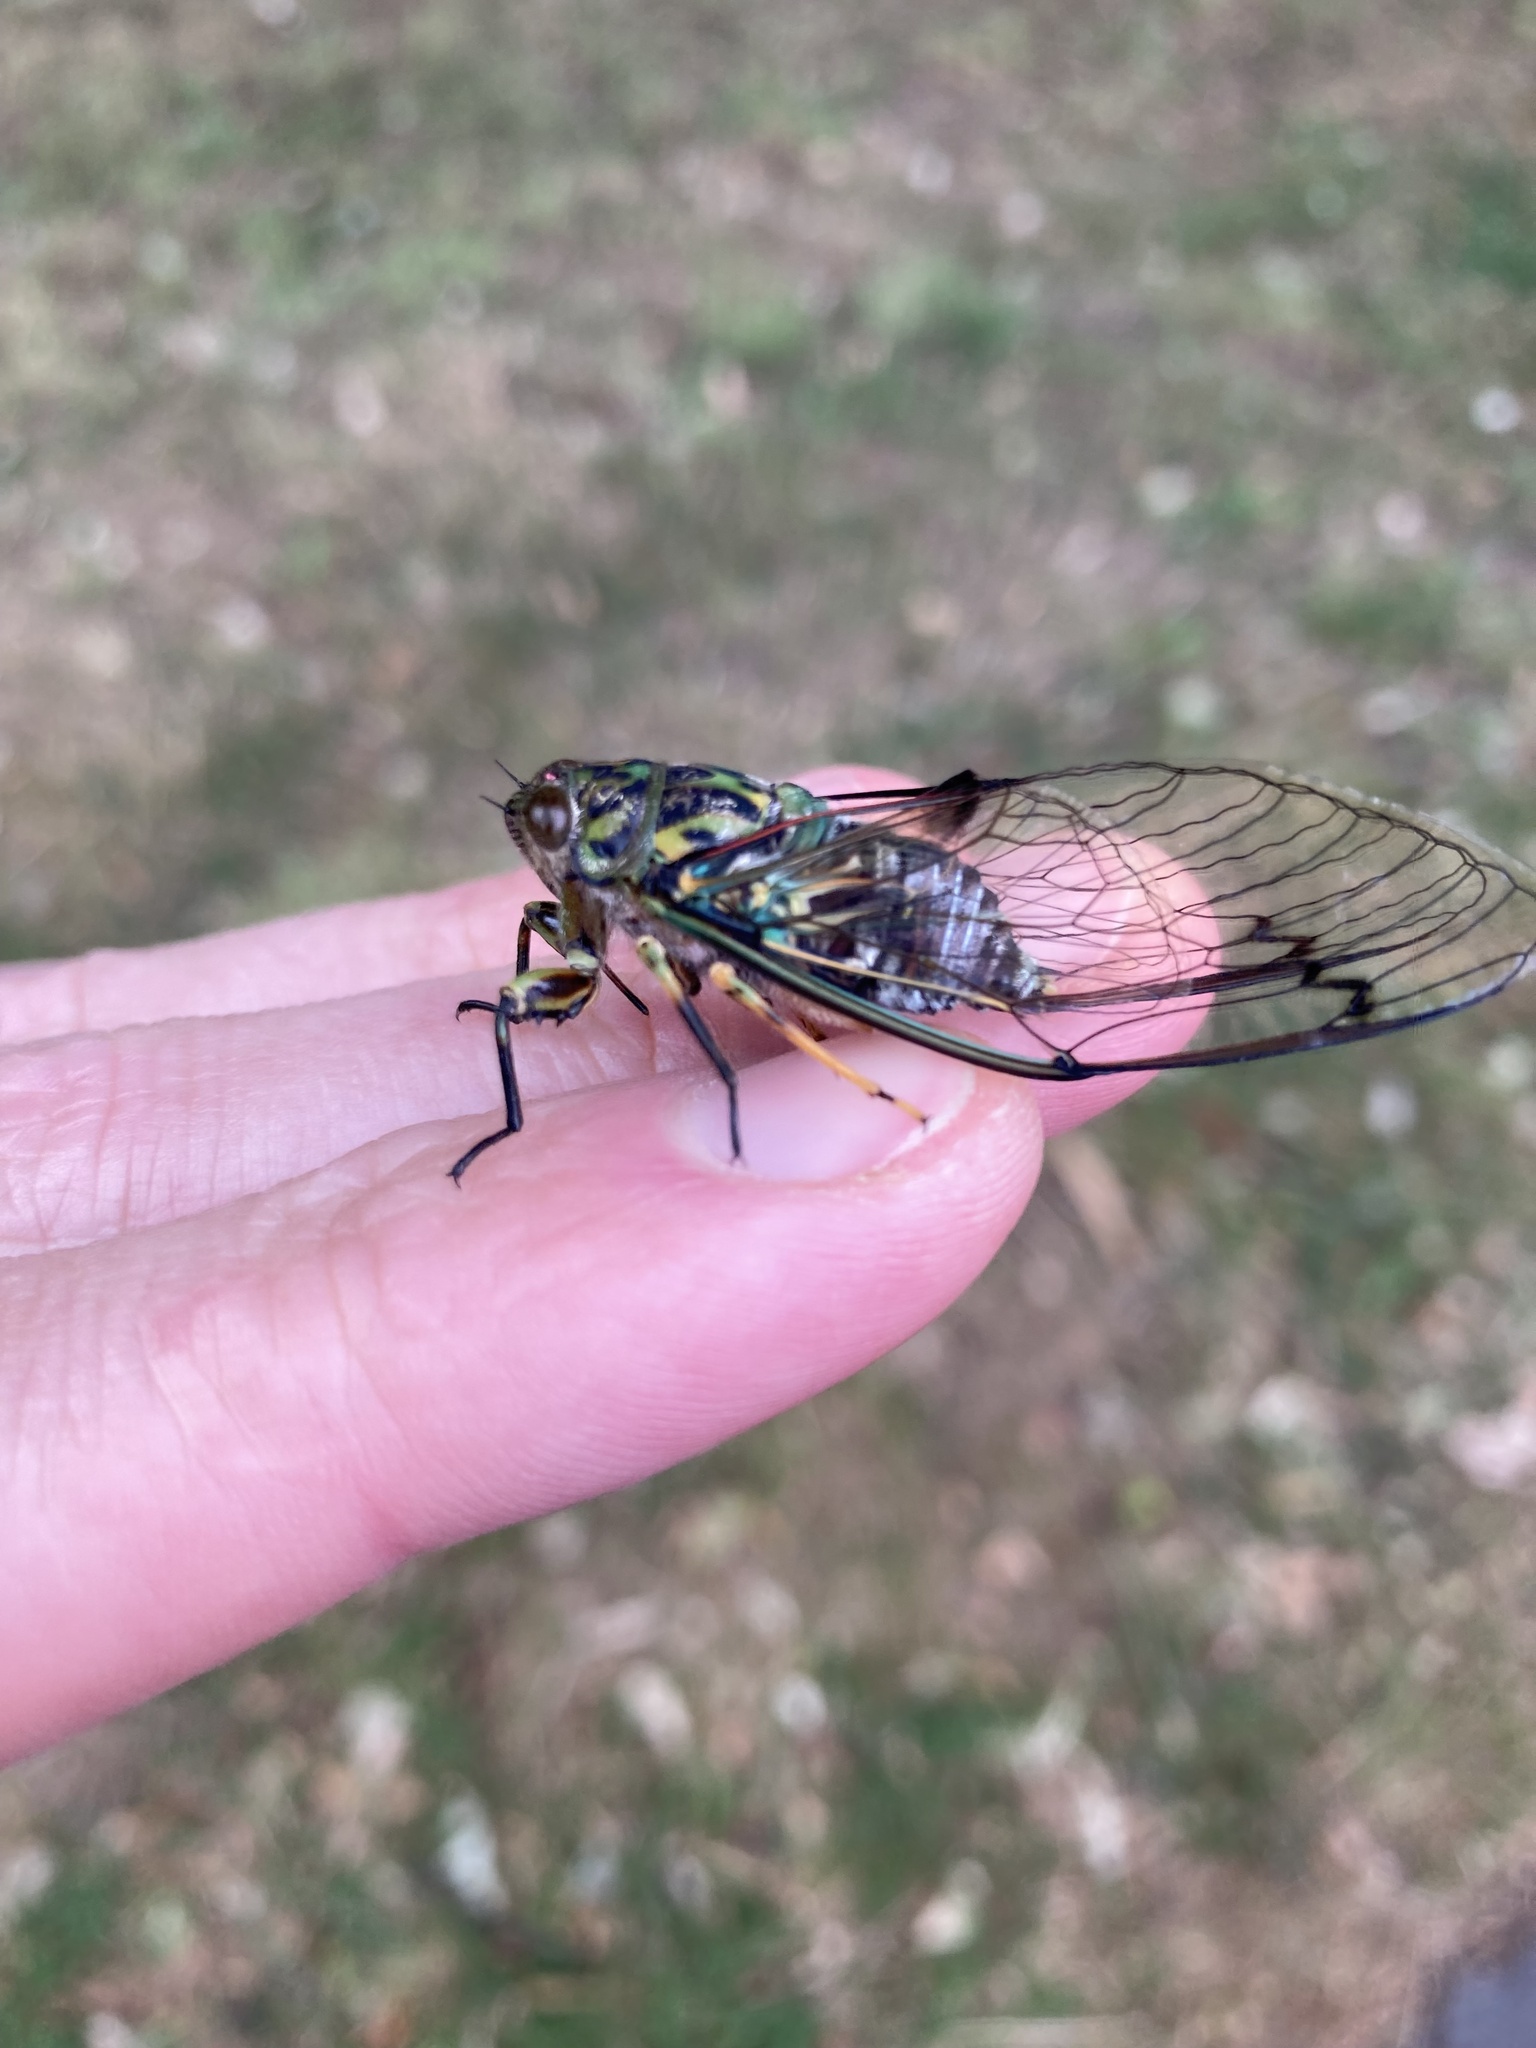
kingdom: Animalia
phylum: Arthropoda
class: Insecta
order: Hemiptera
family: Cicadidae
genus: Amphipsalta
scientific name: Amphipsalta zelandica
